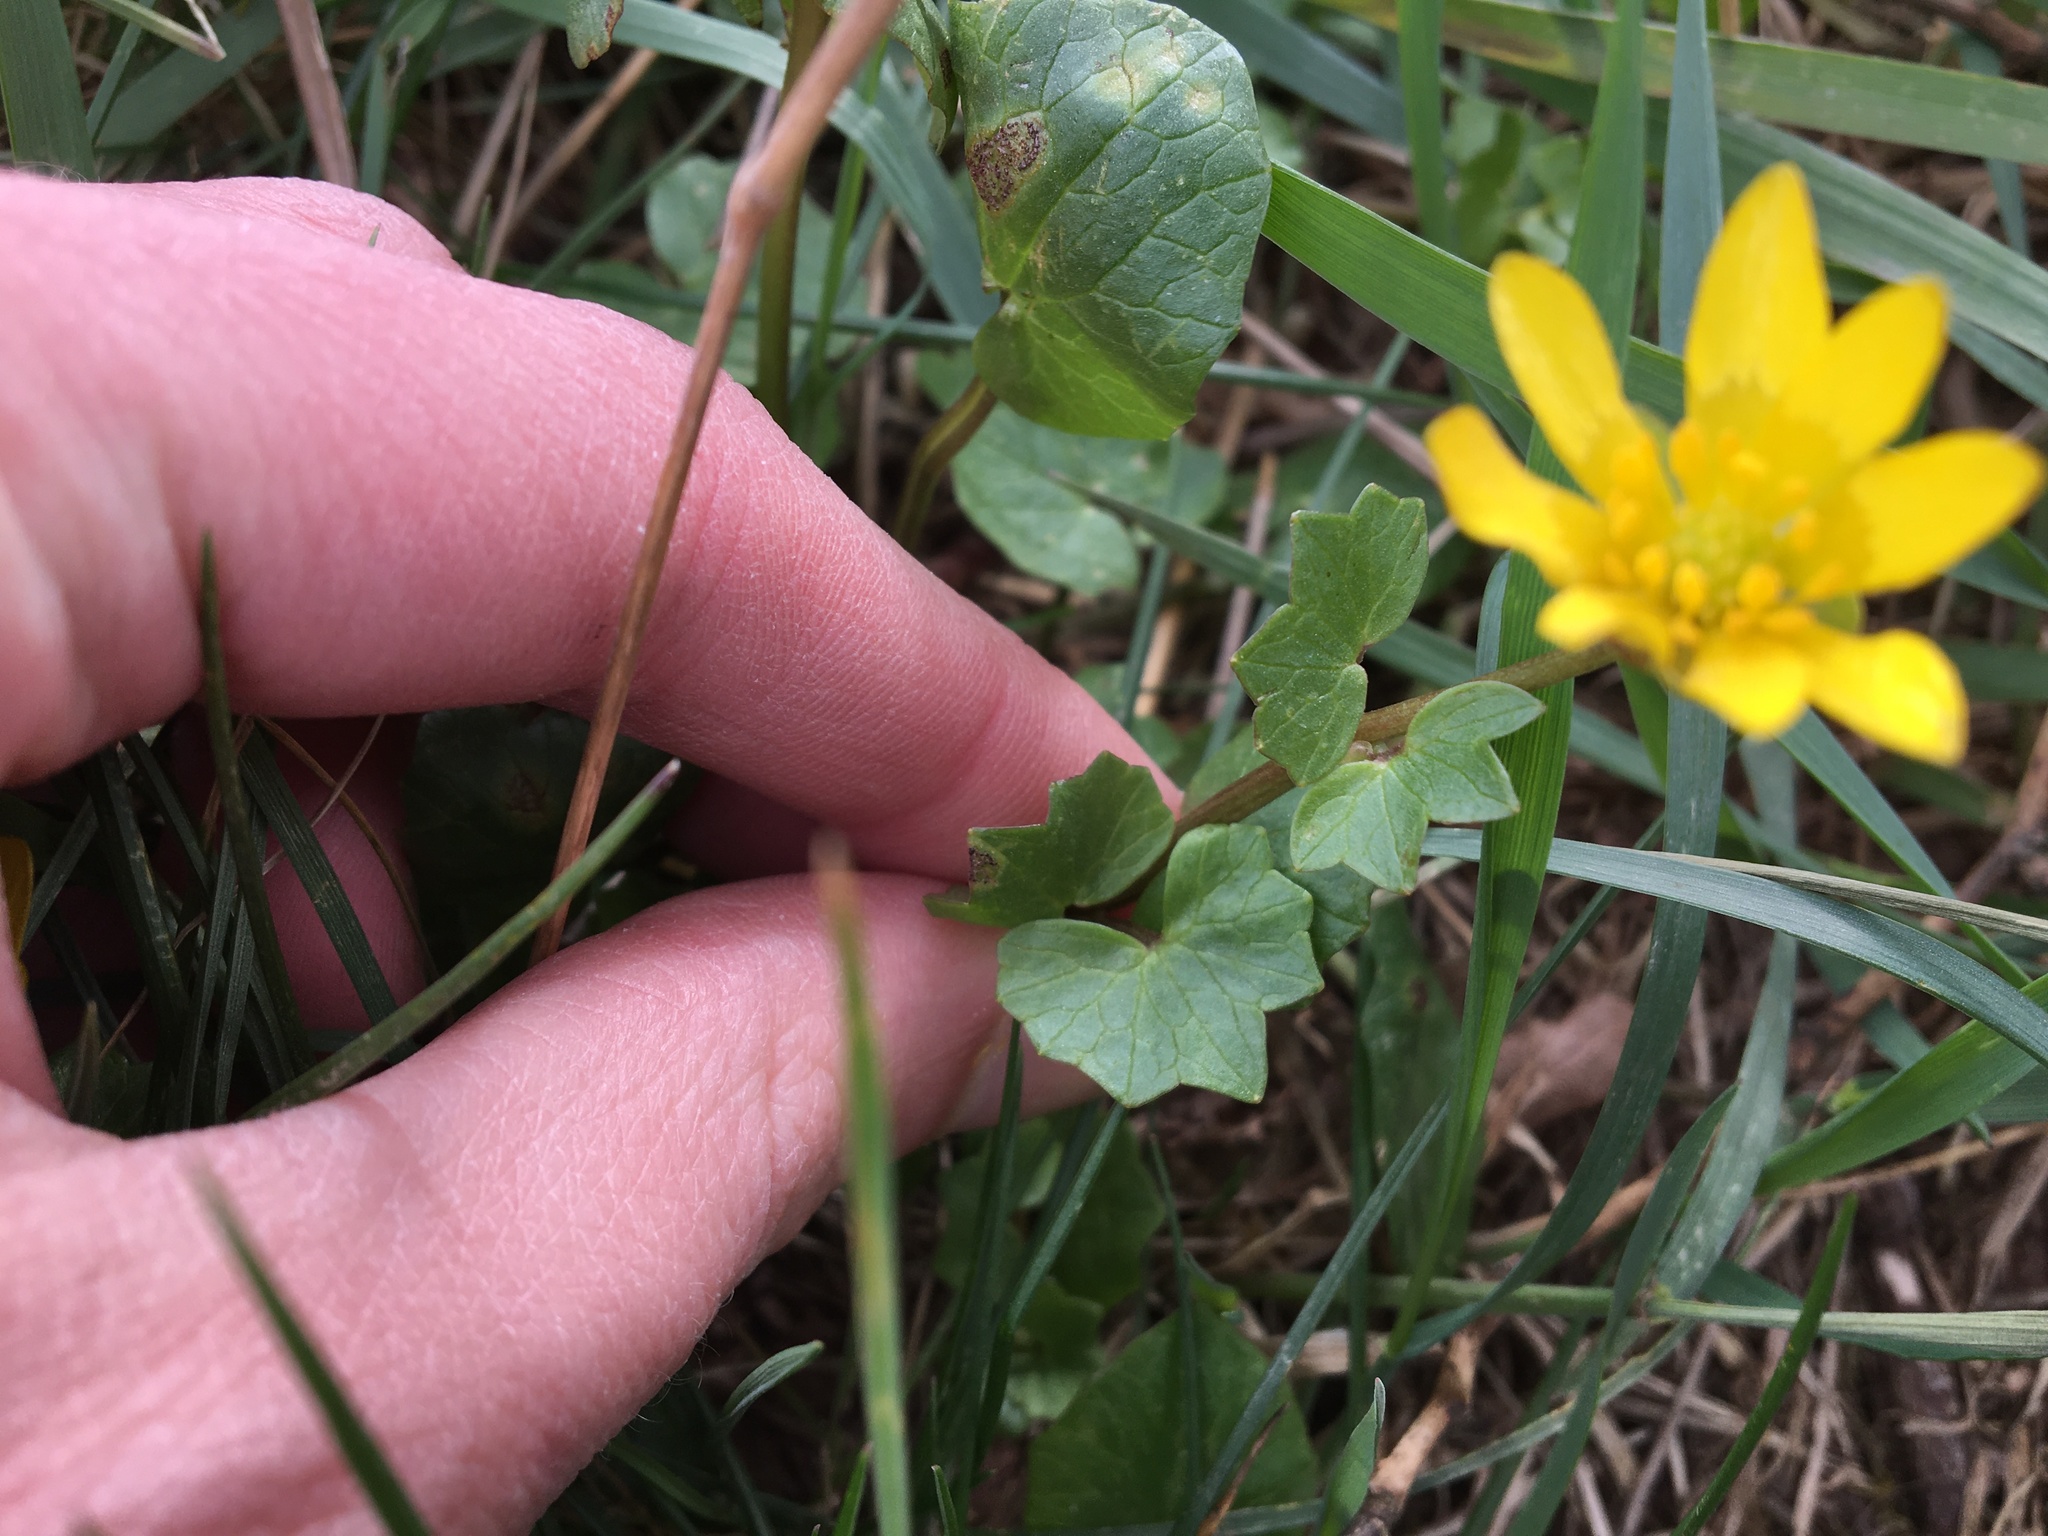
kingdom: Plantae
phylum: Tracheophyta
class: Magnoliopsida
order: Ranunculales
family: Ranunculaceae
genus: Ficaria
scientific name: Ficaria verna
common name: Lesser celandine
